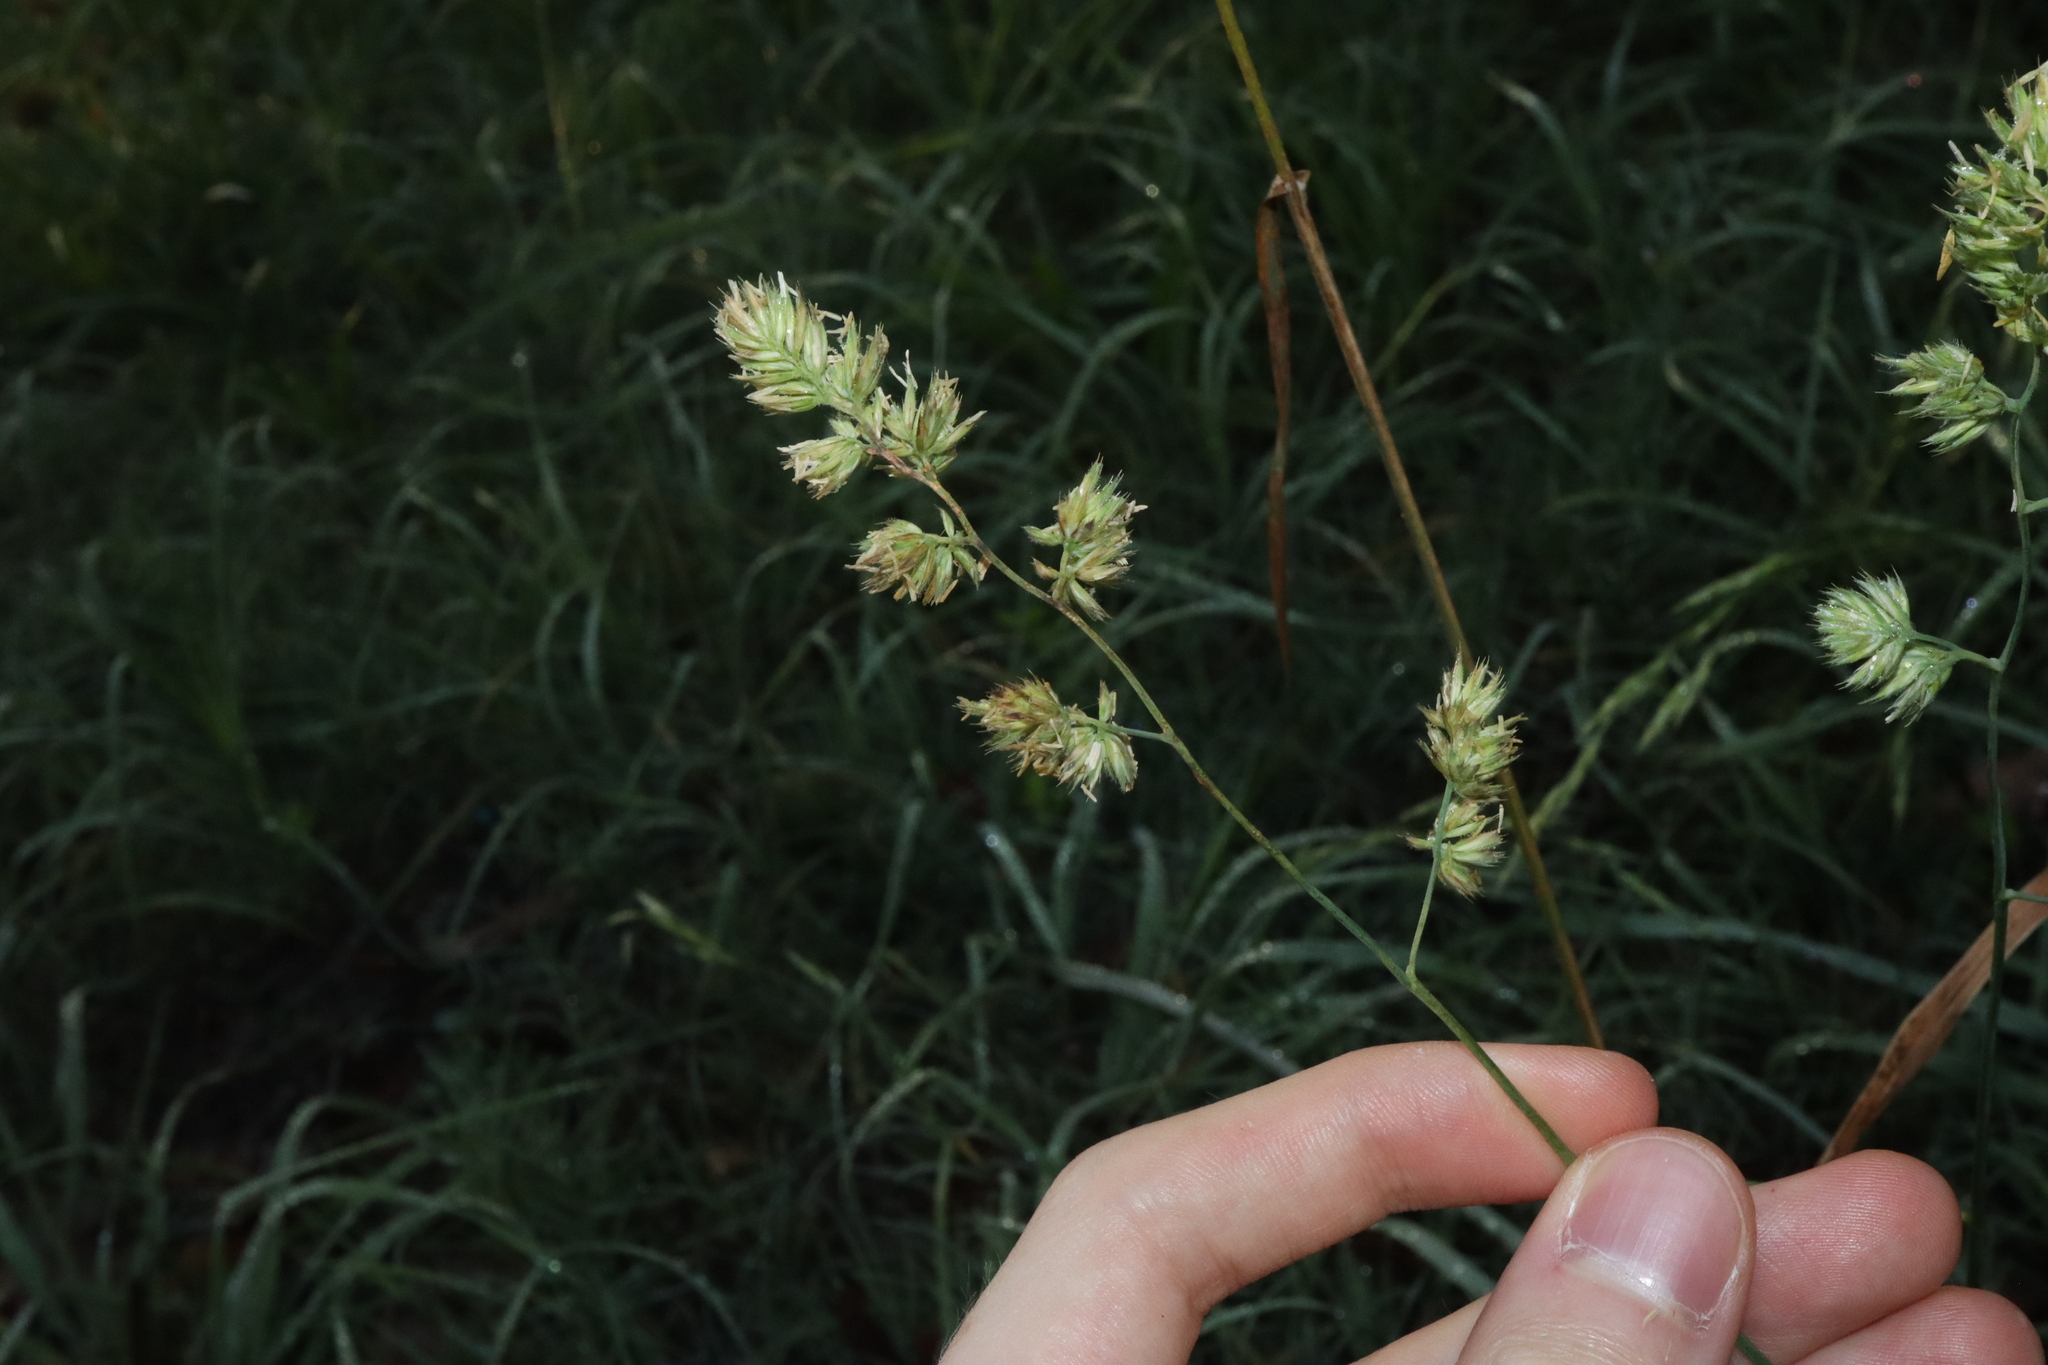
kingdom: Plantae
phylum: Tracheophyta
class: Liliopsida
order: Poales
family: Poaceae
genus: Dactylis
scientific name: Dactylis glomerata
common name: Orchardgrass
